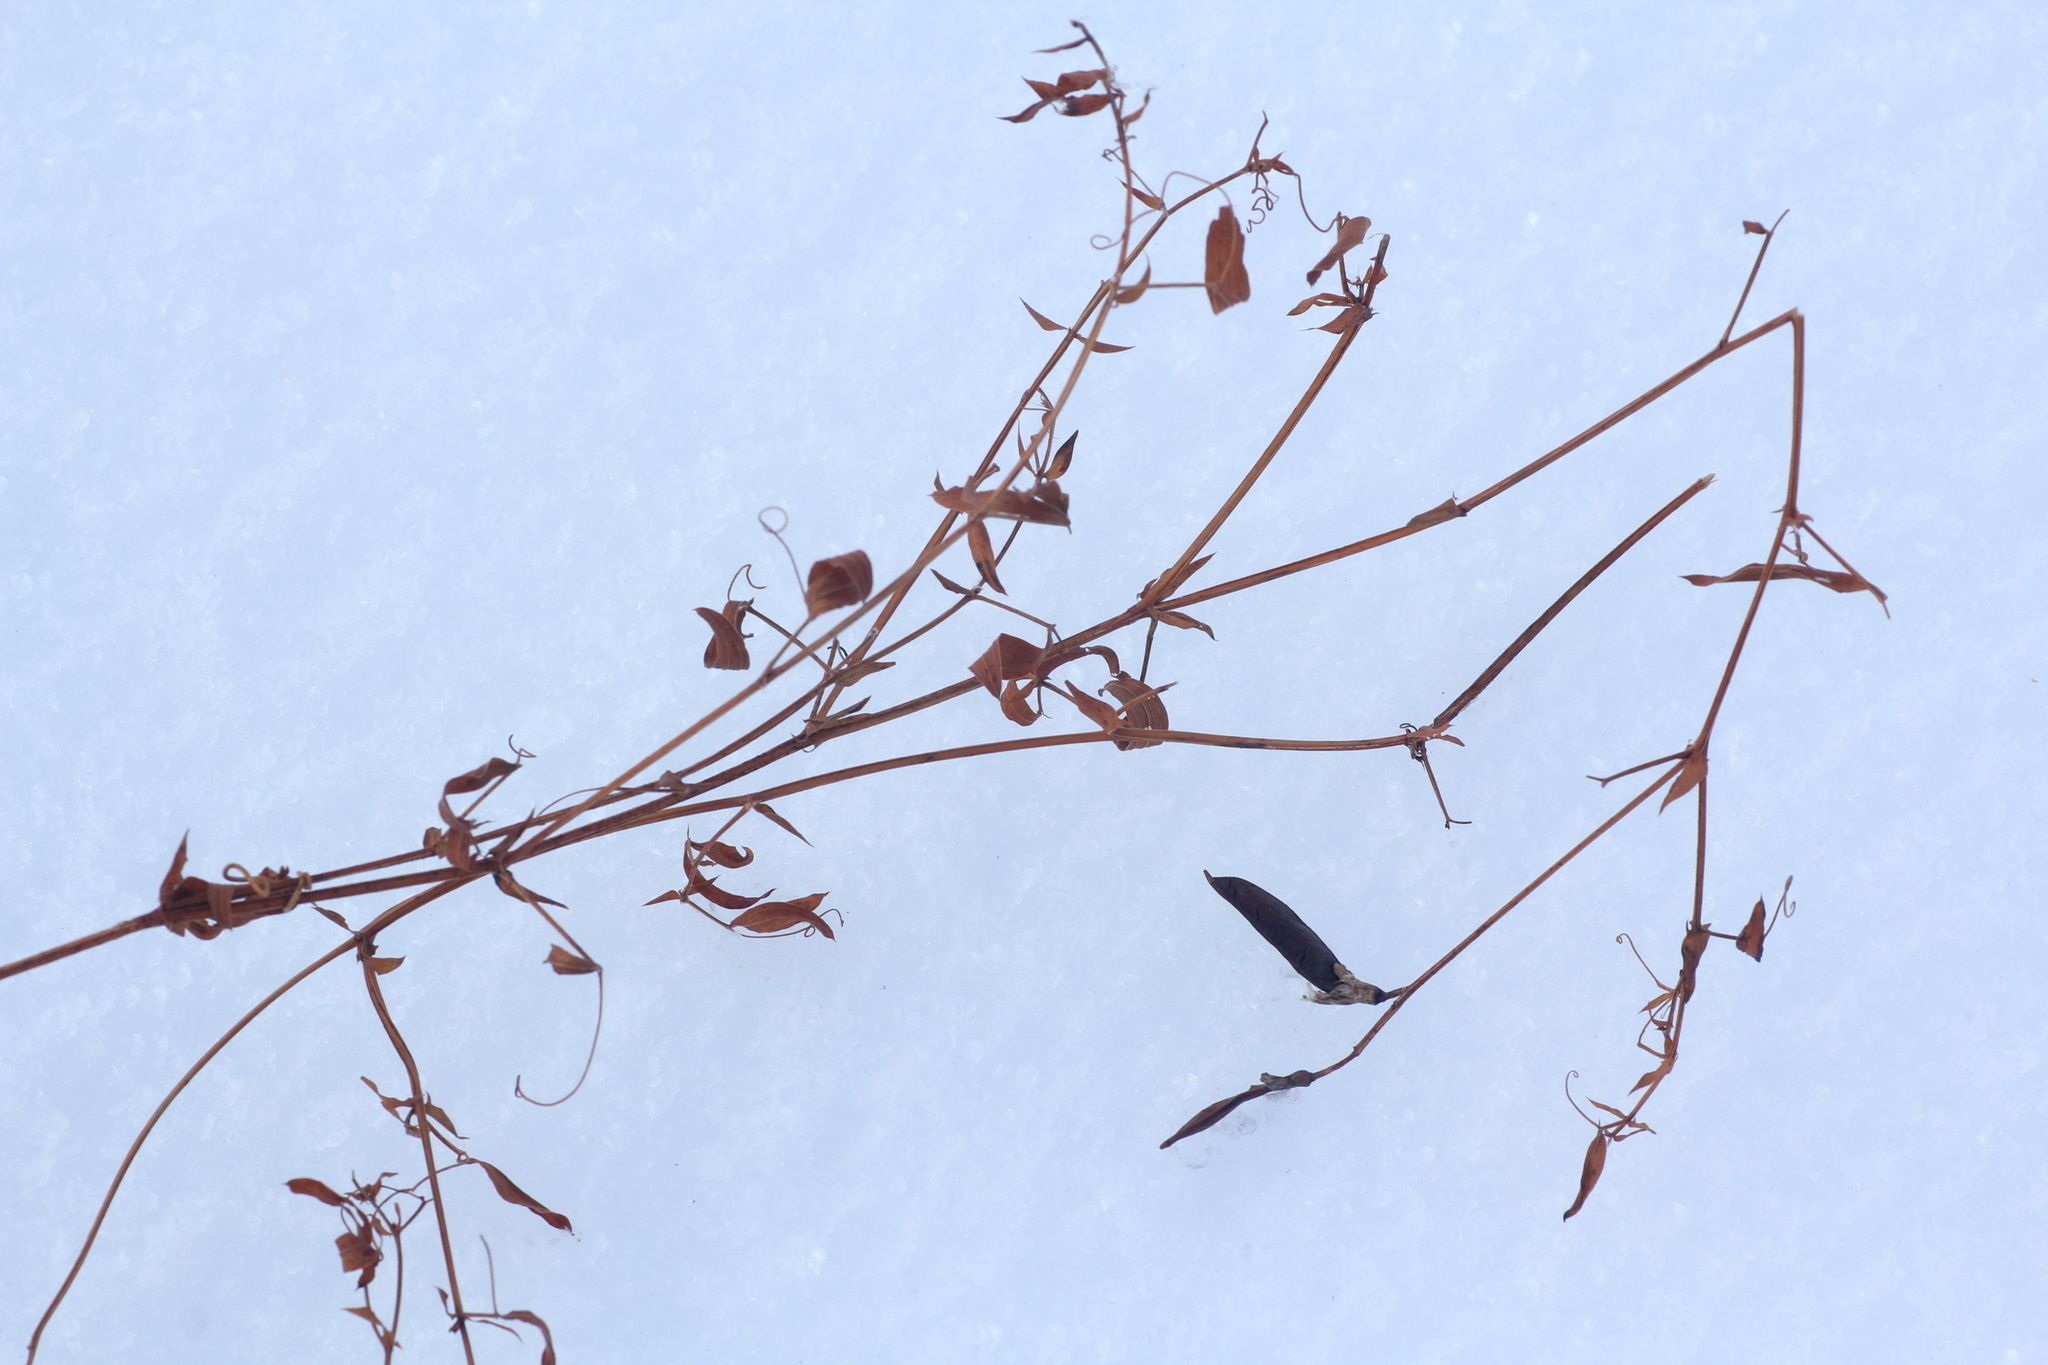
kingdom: Plantae
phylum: Tracheophyta
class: Magnoliopsida
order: Fabales
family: Fabaceae
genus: Lathyrus
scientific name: Lathyrus pratensis
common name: Meadow vetchling
